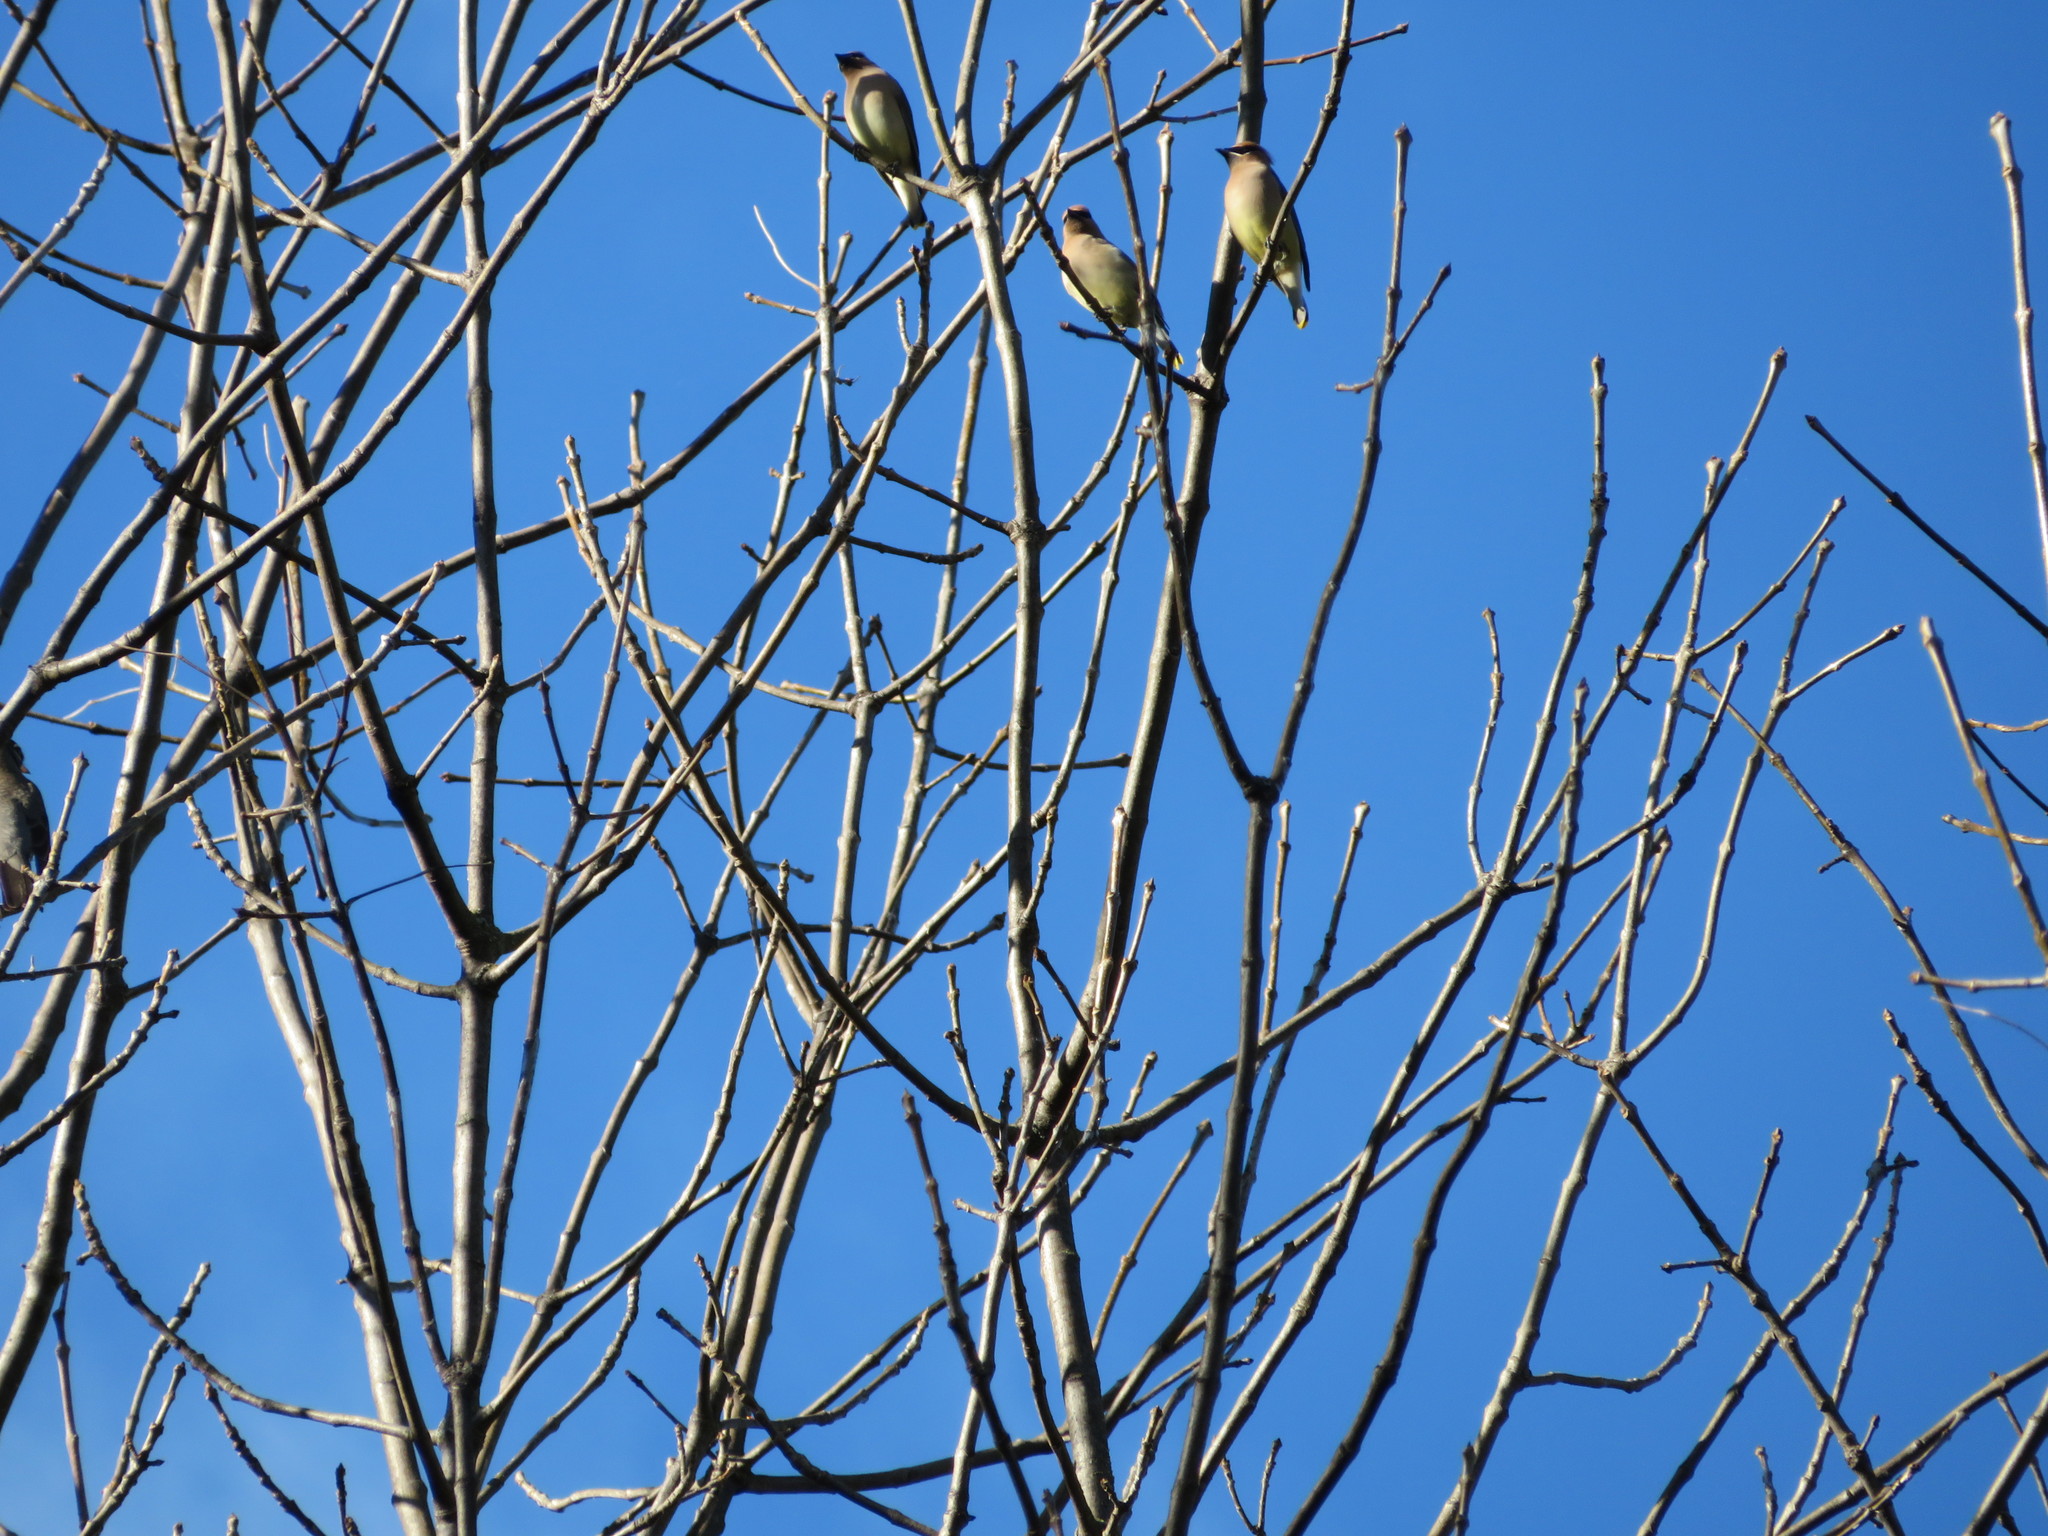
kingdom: Animalia
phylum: Chordata
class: Aves
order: Passeriformes
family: Bombycillidae
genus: Bombycilla
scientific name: Bombycilla cedrorum
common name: Cedar waxwing
